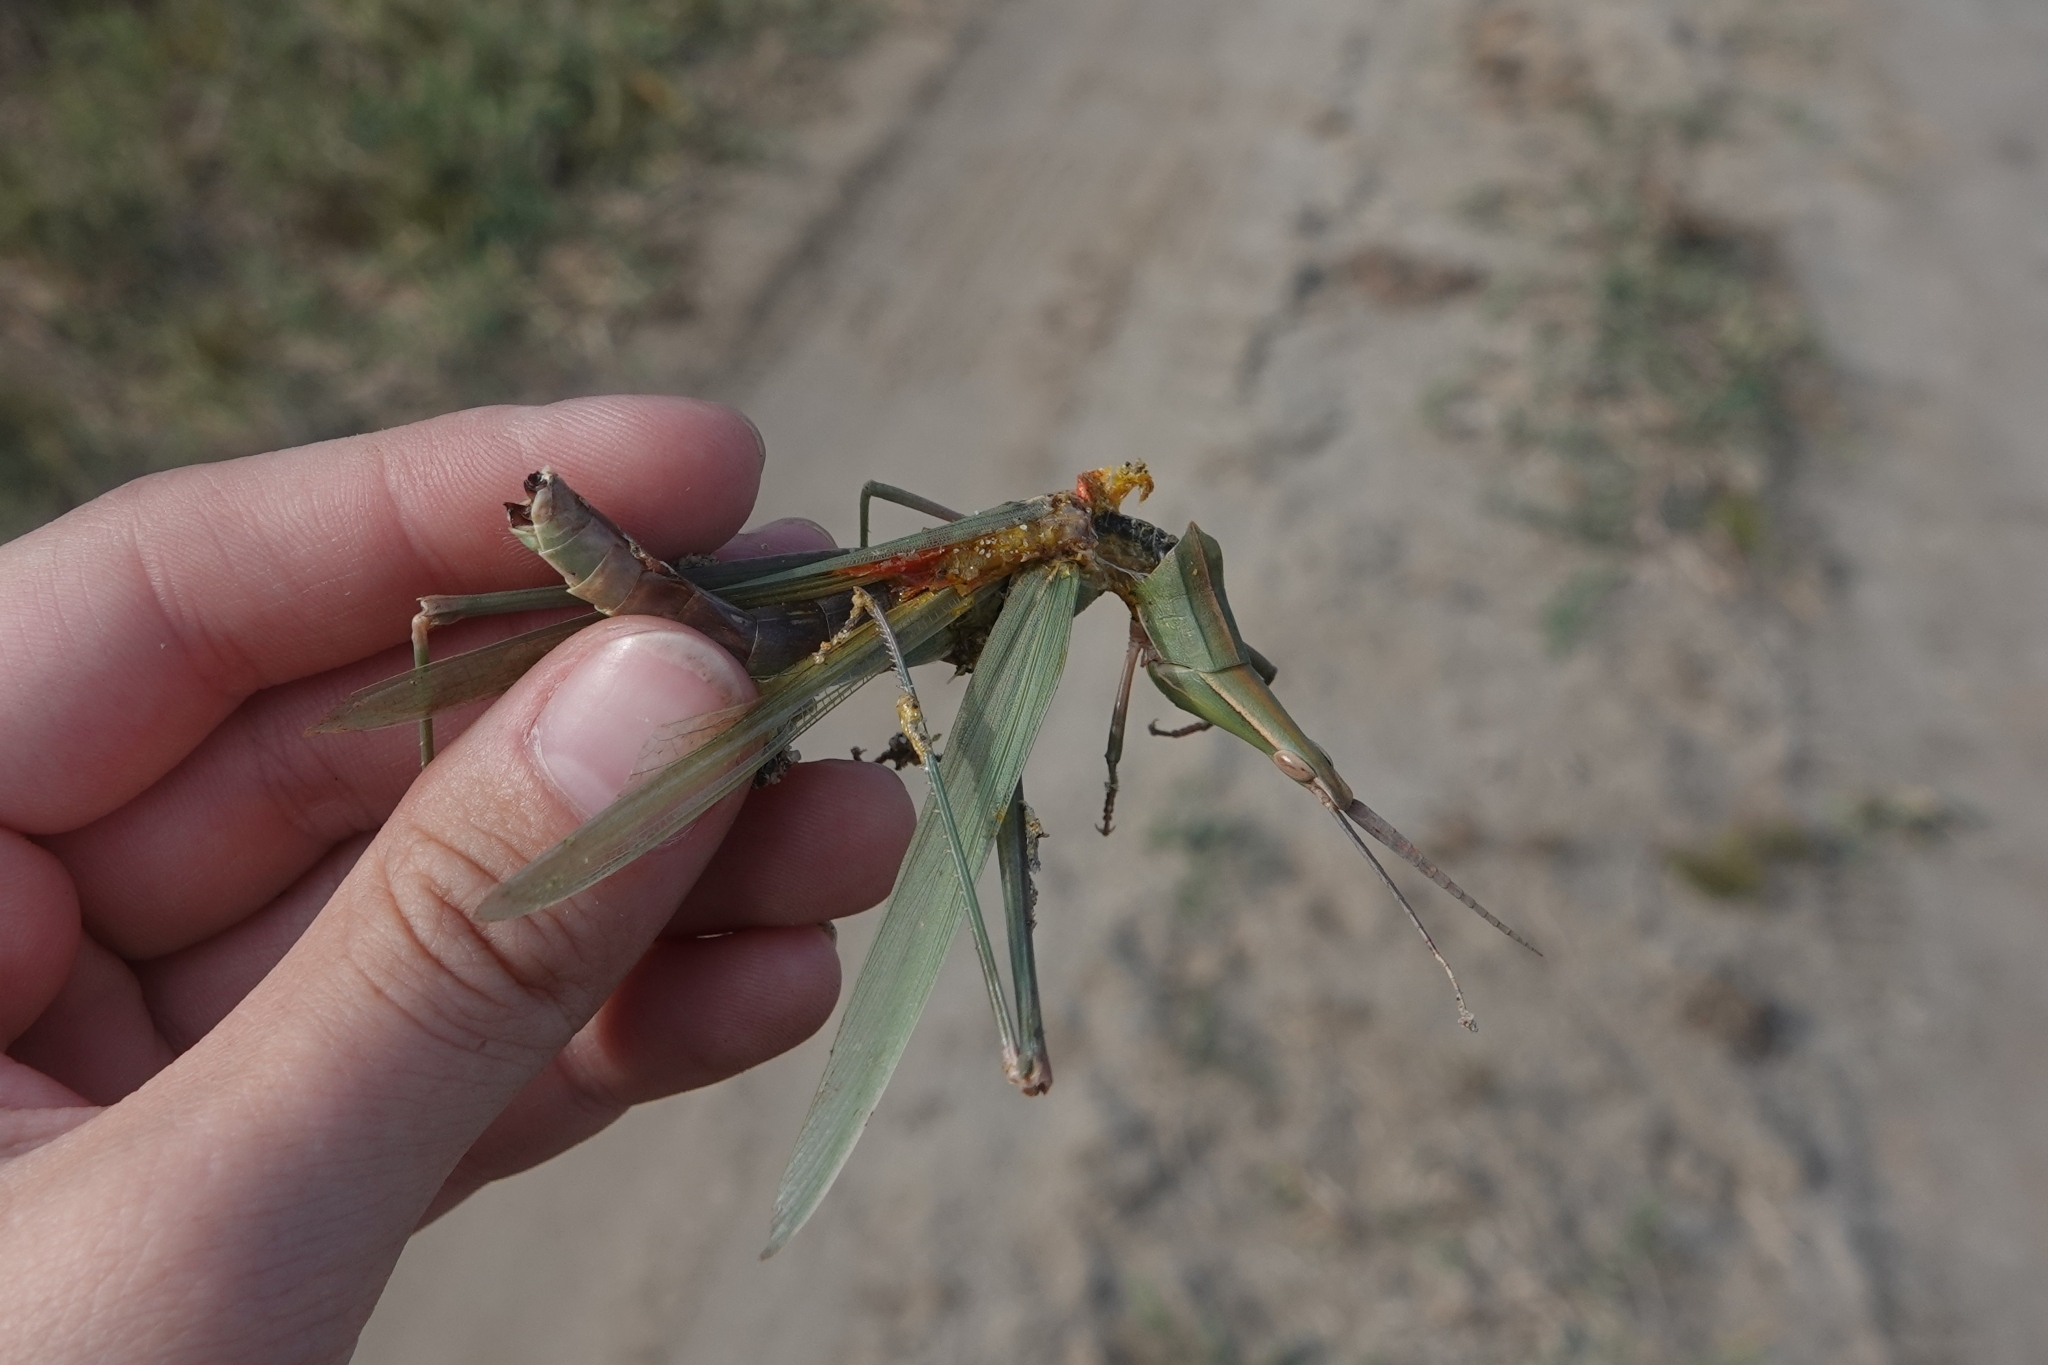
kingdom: Animalia
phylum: Arthropoda
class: Insecta
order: Orthoptera
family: Acrididae
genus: Acrida
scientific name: Acrida ungarica
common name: Common cone-headed grasshopper
